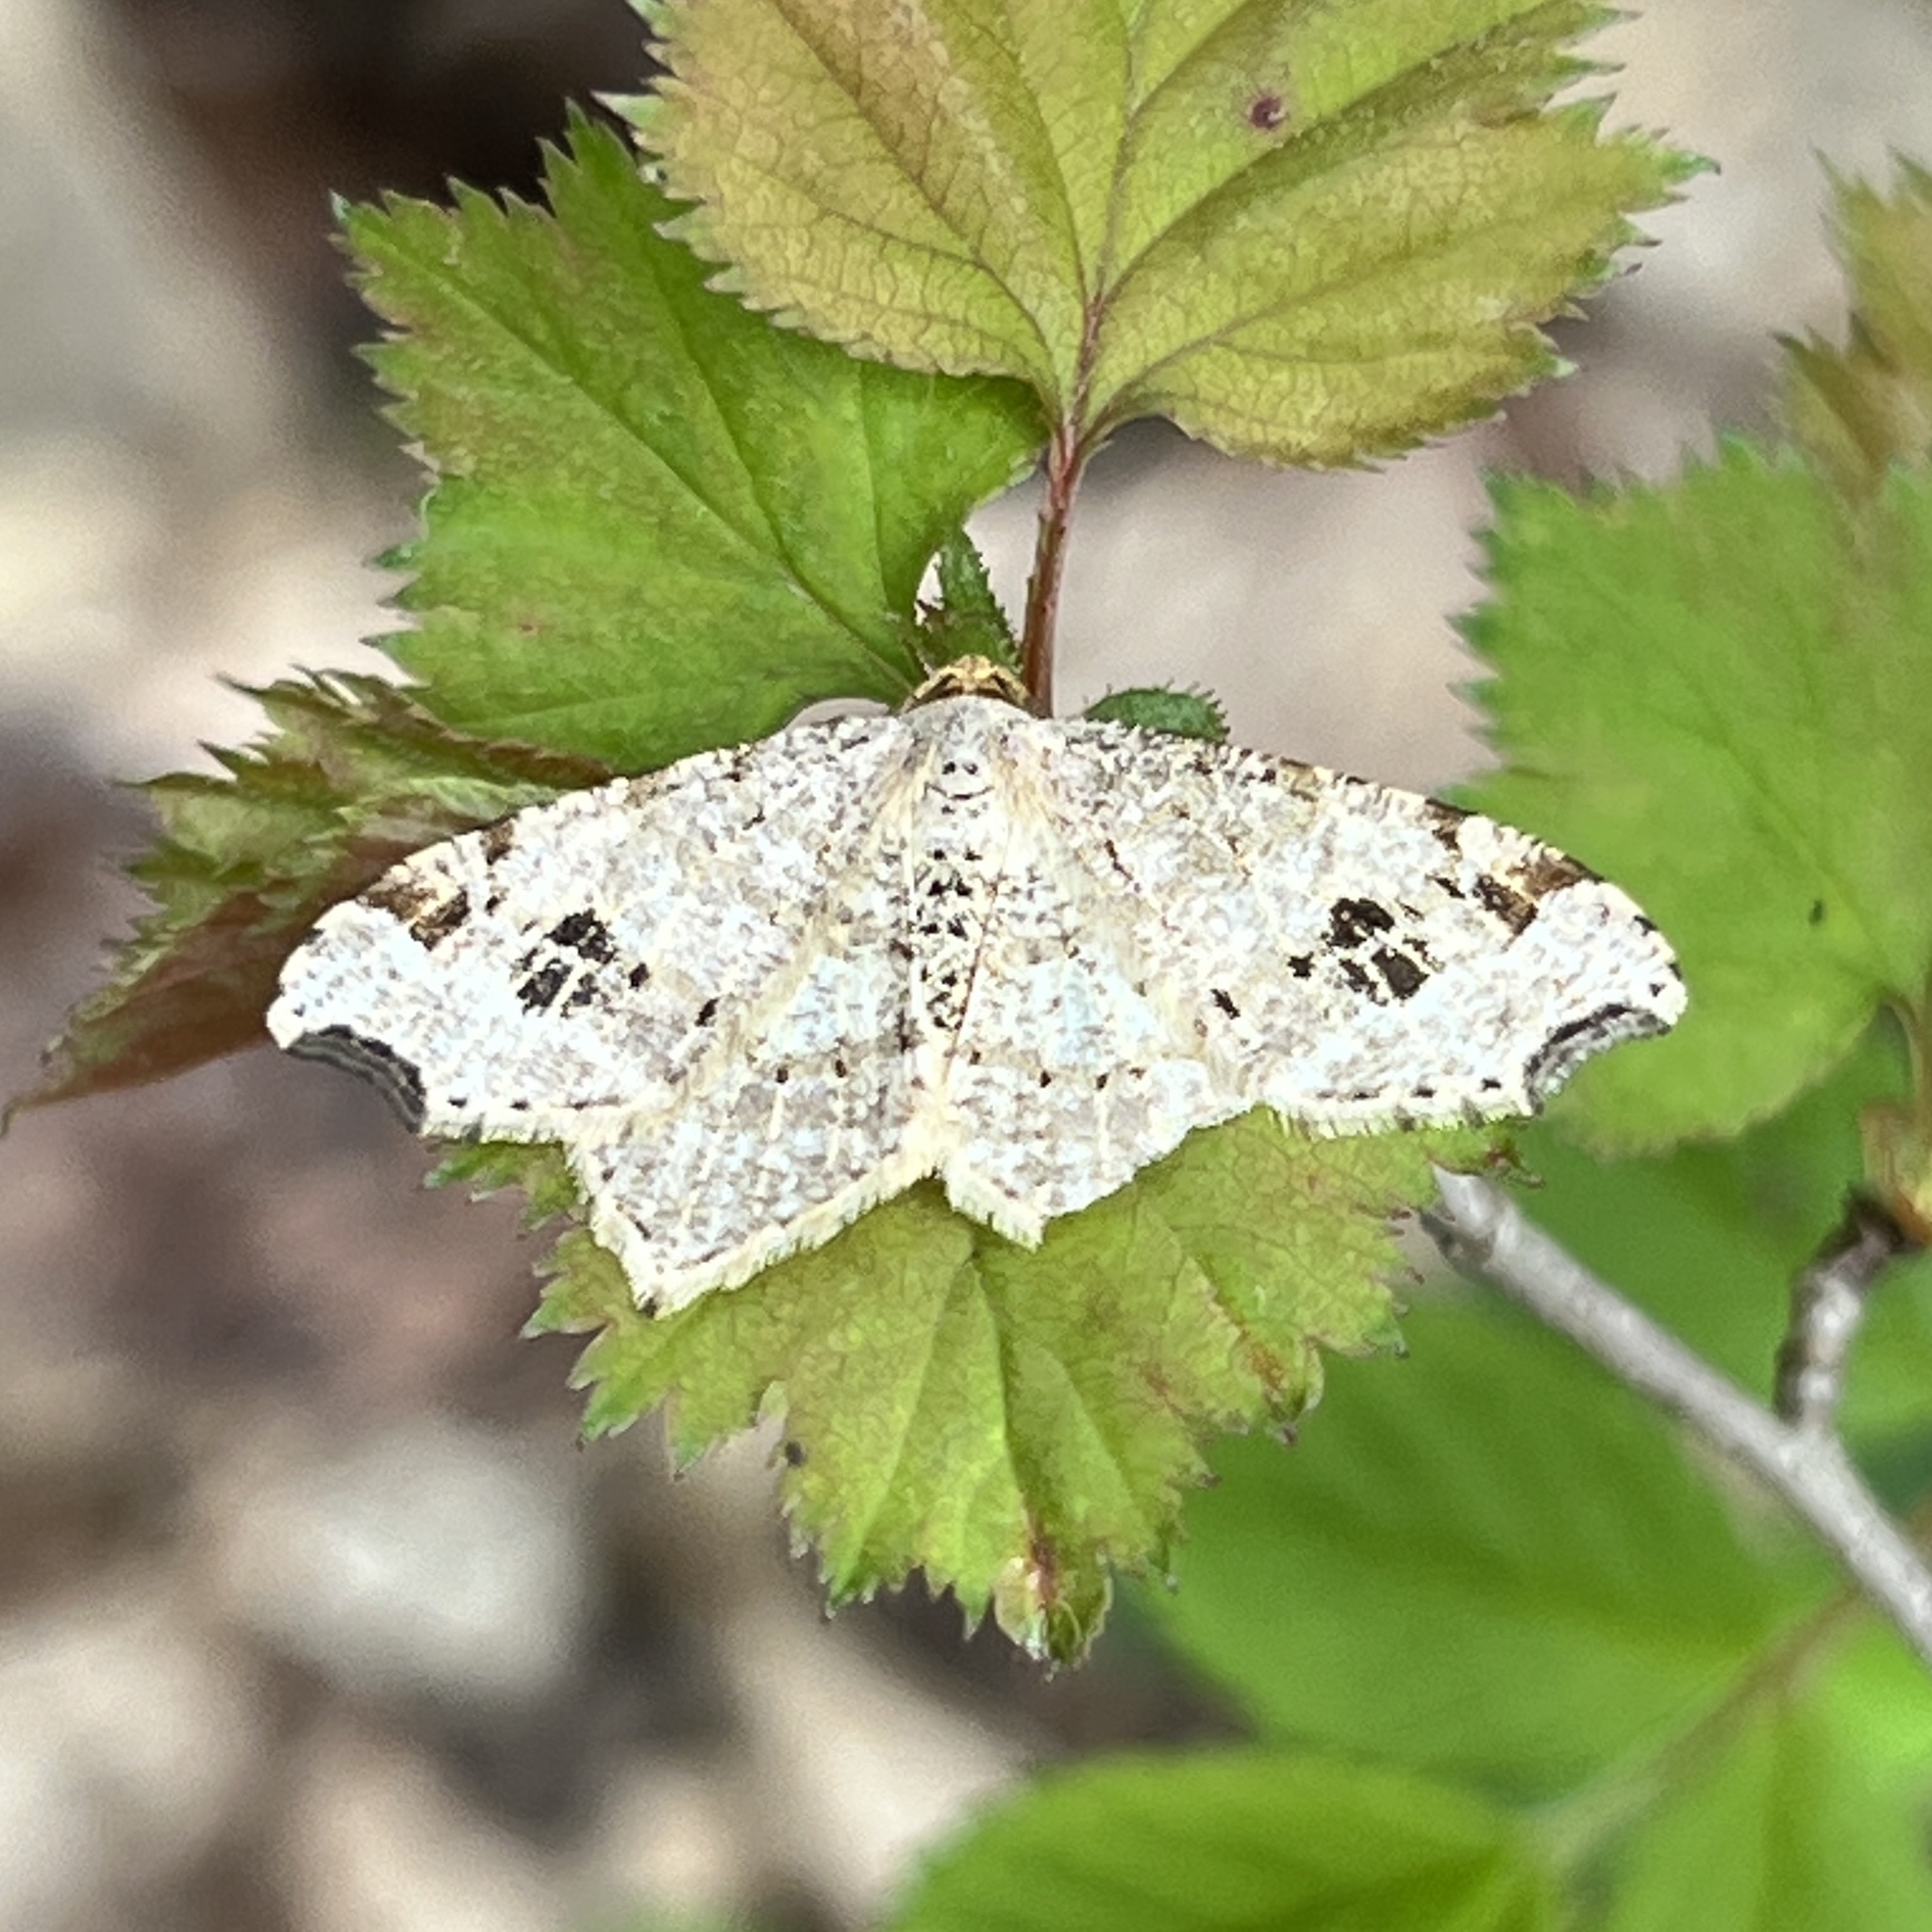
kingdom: Animalia
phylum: Arthropoda
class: Insecta
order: Lepidoptera
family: Geometridae
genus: Macaria
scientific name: Macaria aemulataria
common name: Common angle
